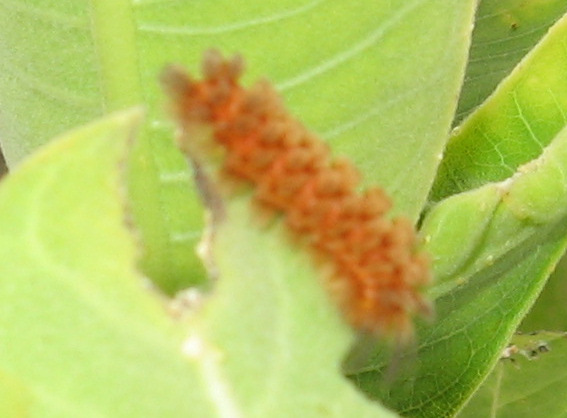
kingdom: Animalia
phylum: Arthropoda
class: Insecta
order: Lepidoptera
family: Erebidae
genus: Cycnia
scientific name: Cycnia collaris
